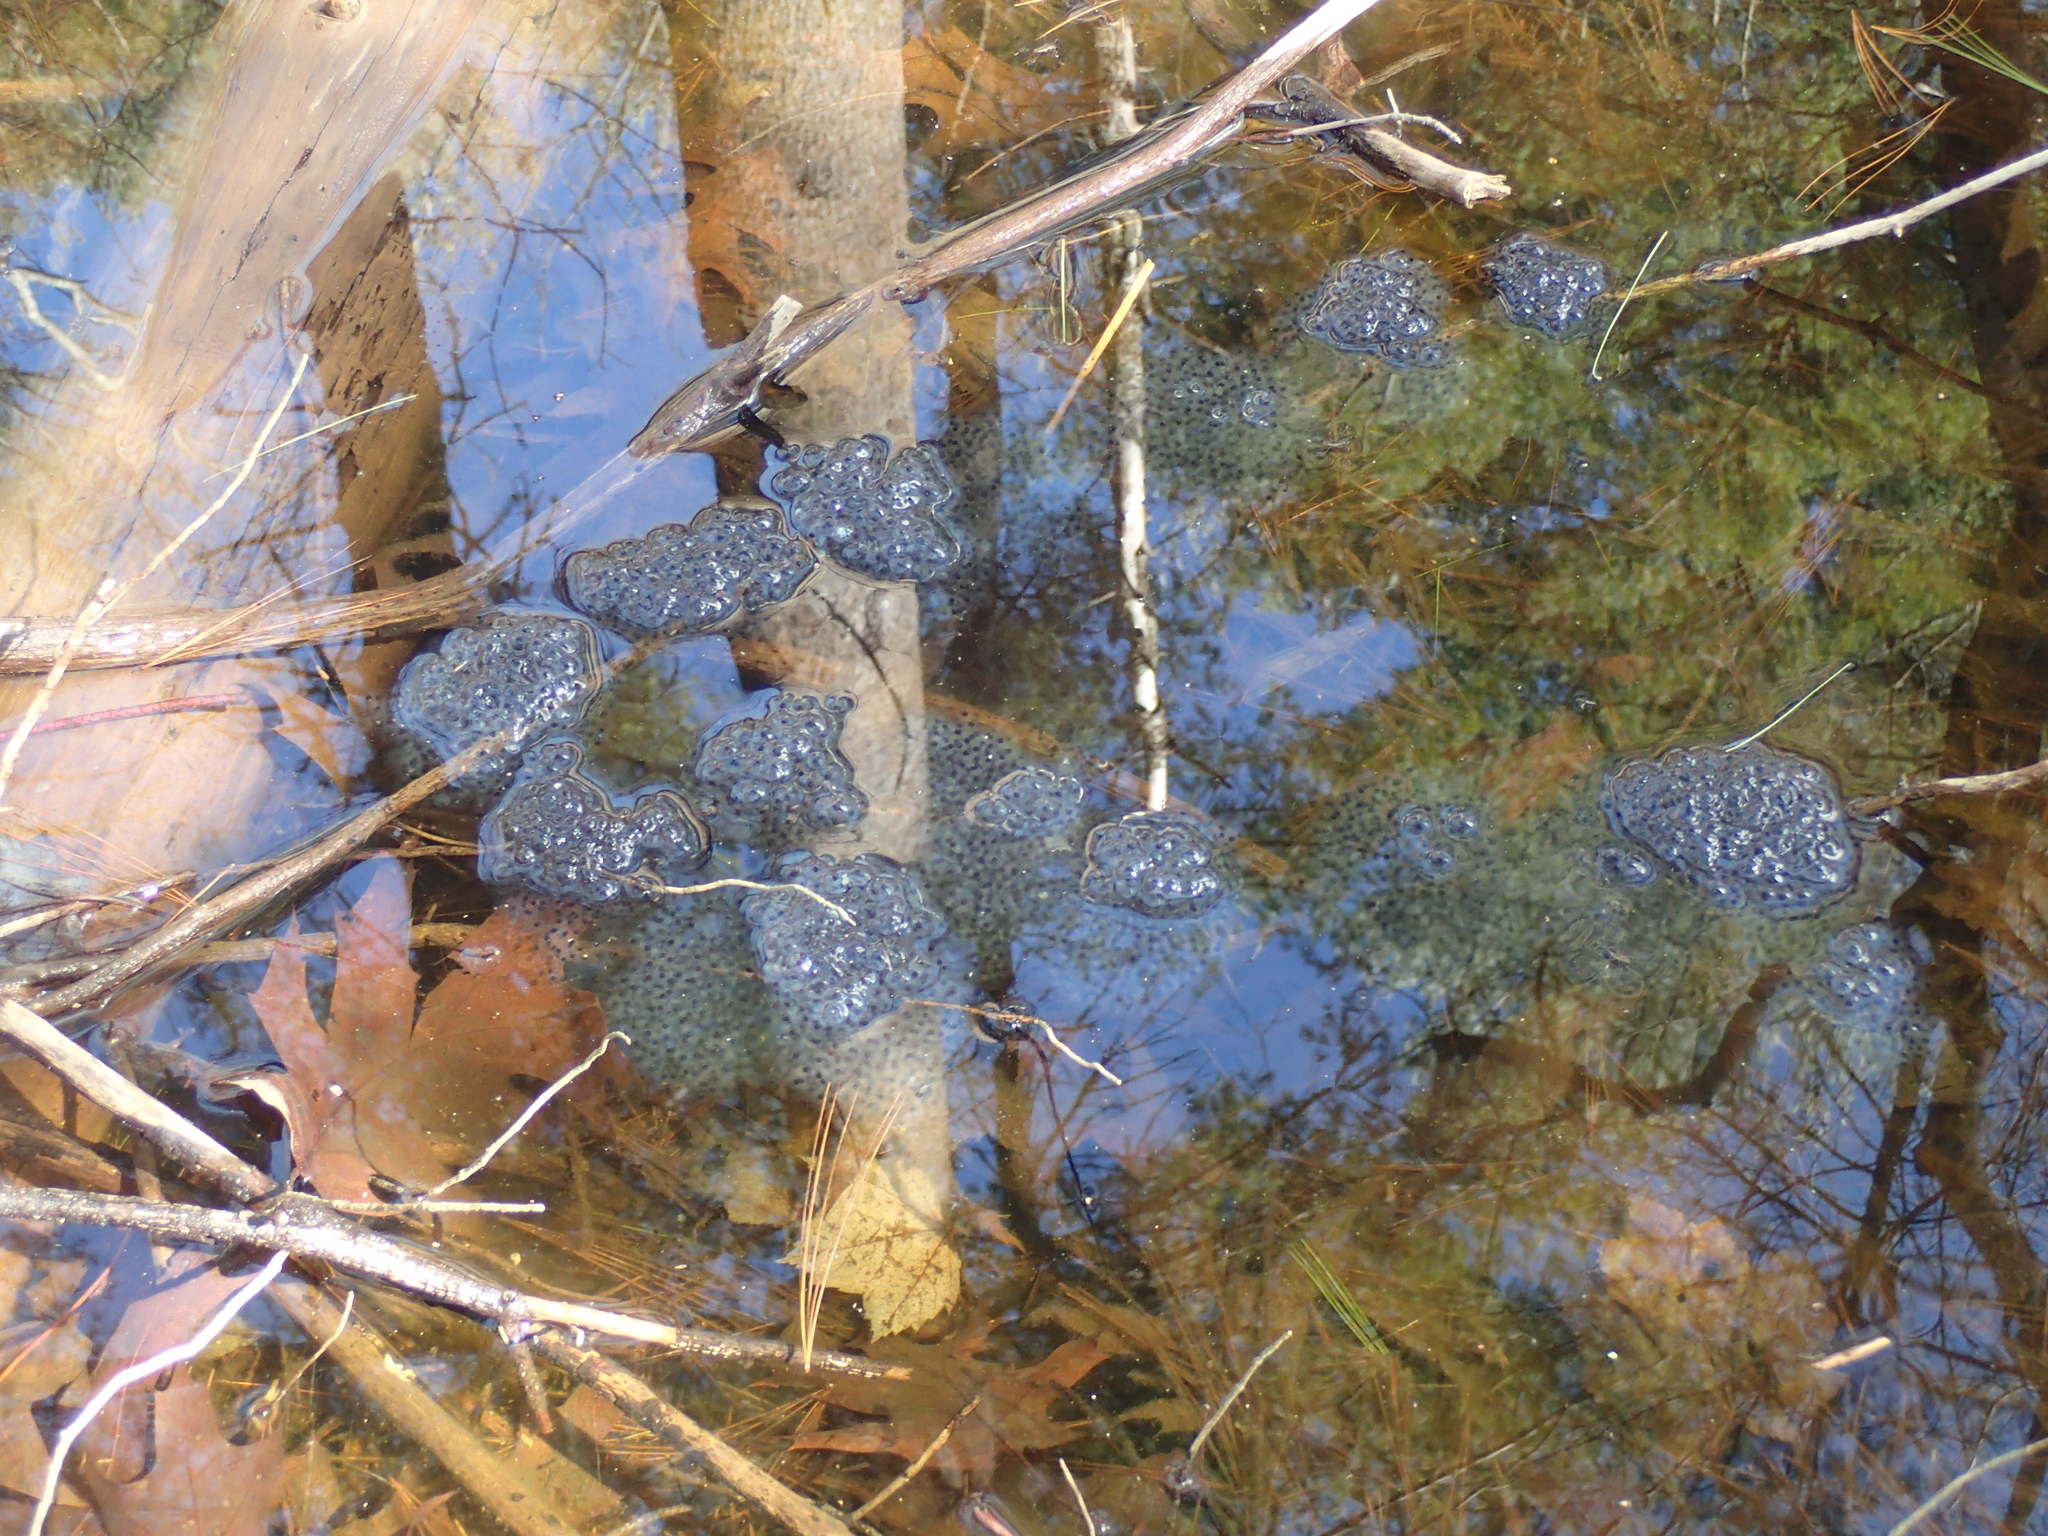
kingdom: Animalia
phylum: Chordata
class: Amphibia
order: Anura
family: Ranidae
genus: Lithobates
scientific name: Lithobates sylvaticus
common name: Wood frog
